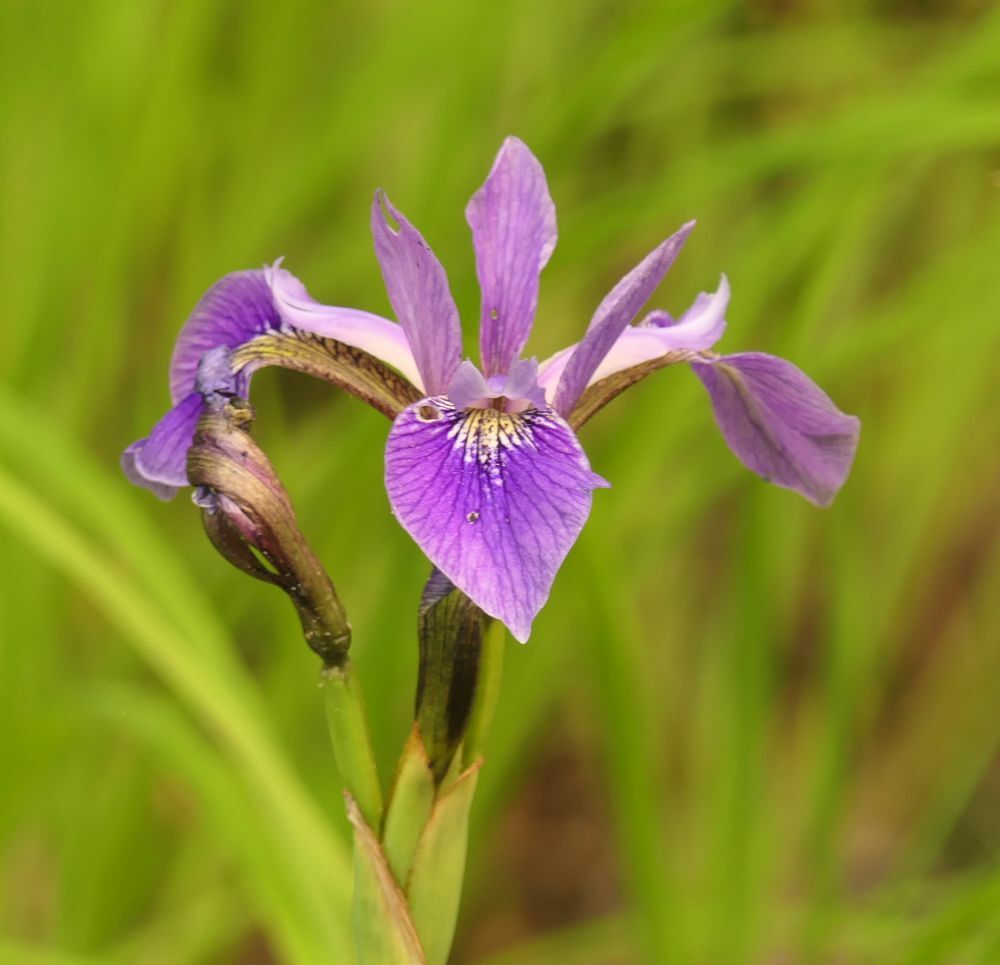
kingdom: Plantae
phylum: Tracheophyta
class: Liliopsida
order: Asparagales
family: Iridaceae
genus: Iris
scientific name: Iris versicolor
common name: Purple iris
